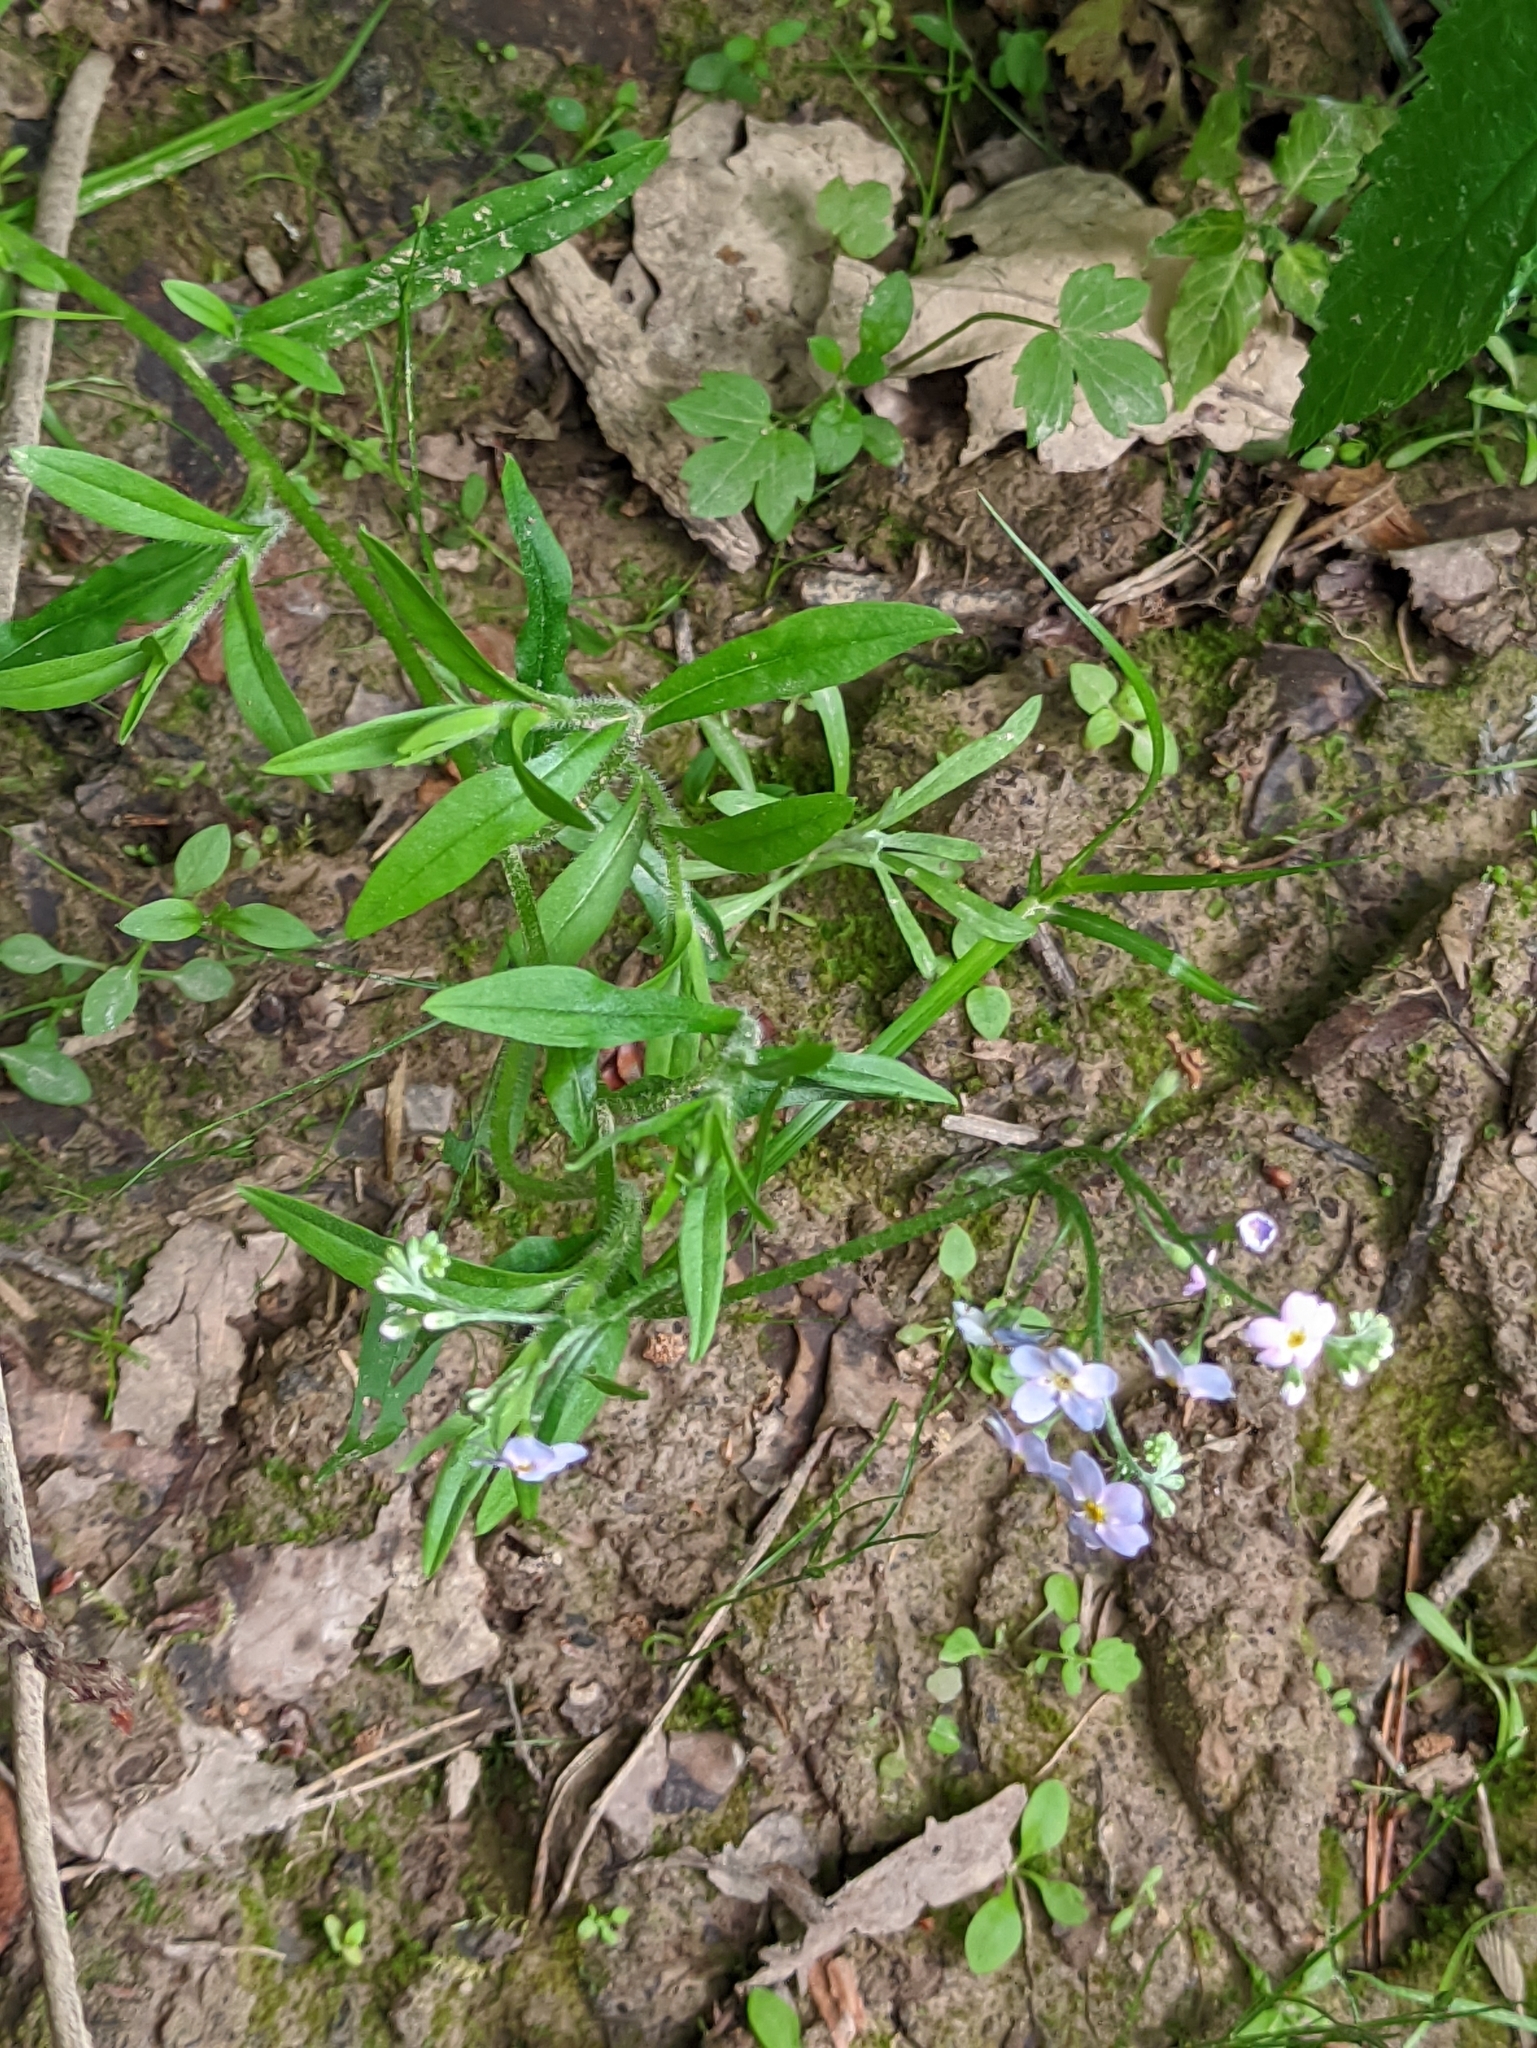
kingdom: Plantae
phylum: Tracheophyta
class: Magnoliopsida
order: Boraginales
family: Boraginaceae
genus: Myosotis
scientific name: Myosotis scorpioides
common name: Water forget-me-not
